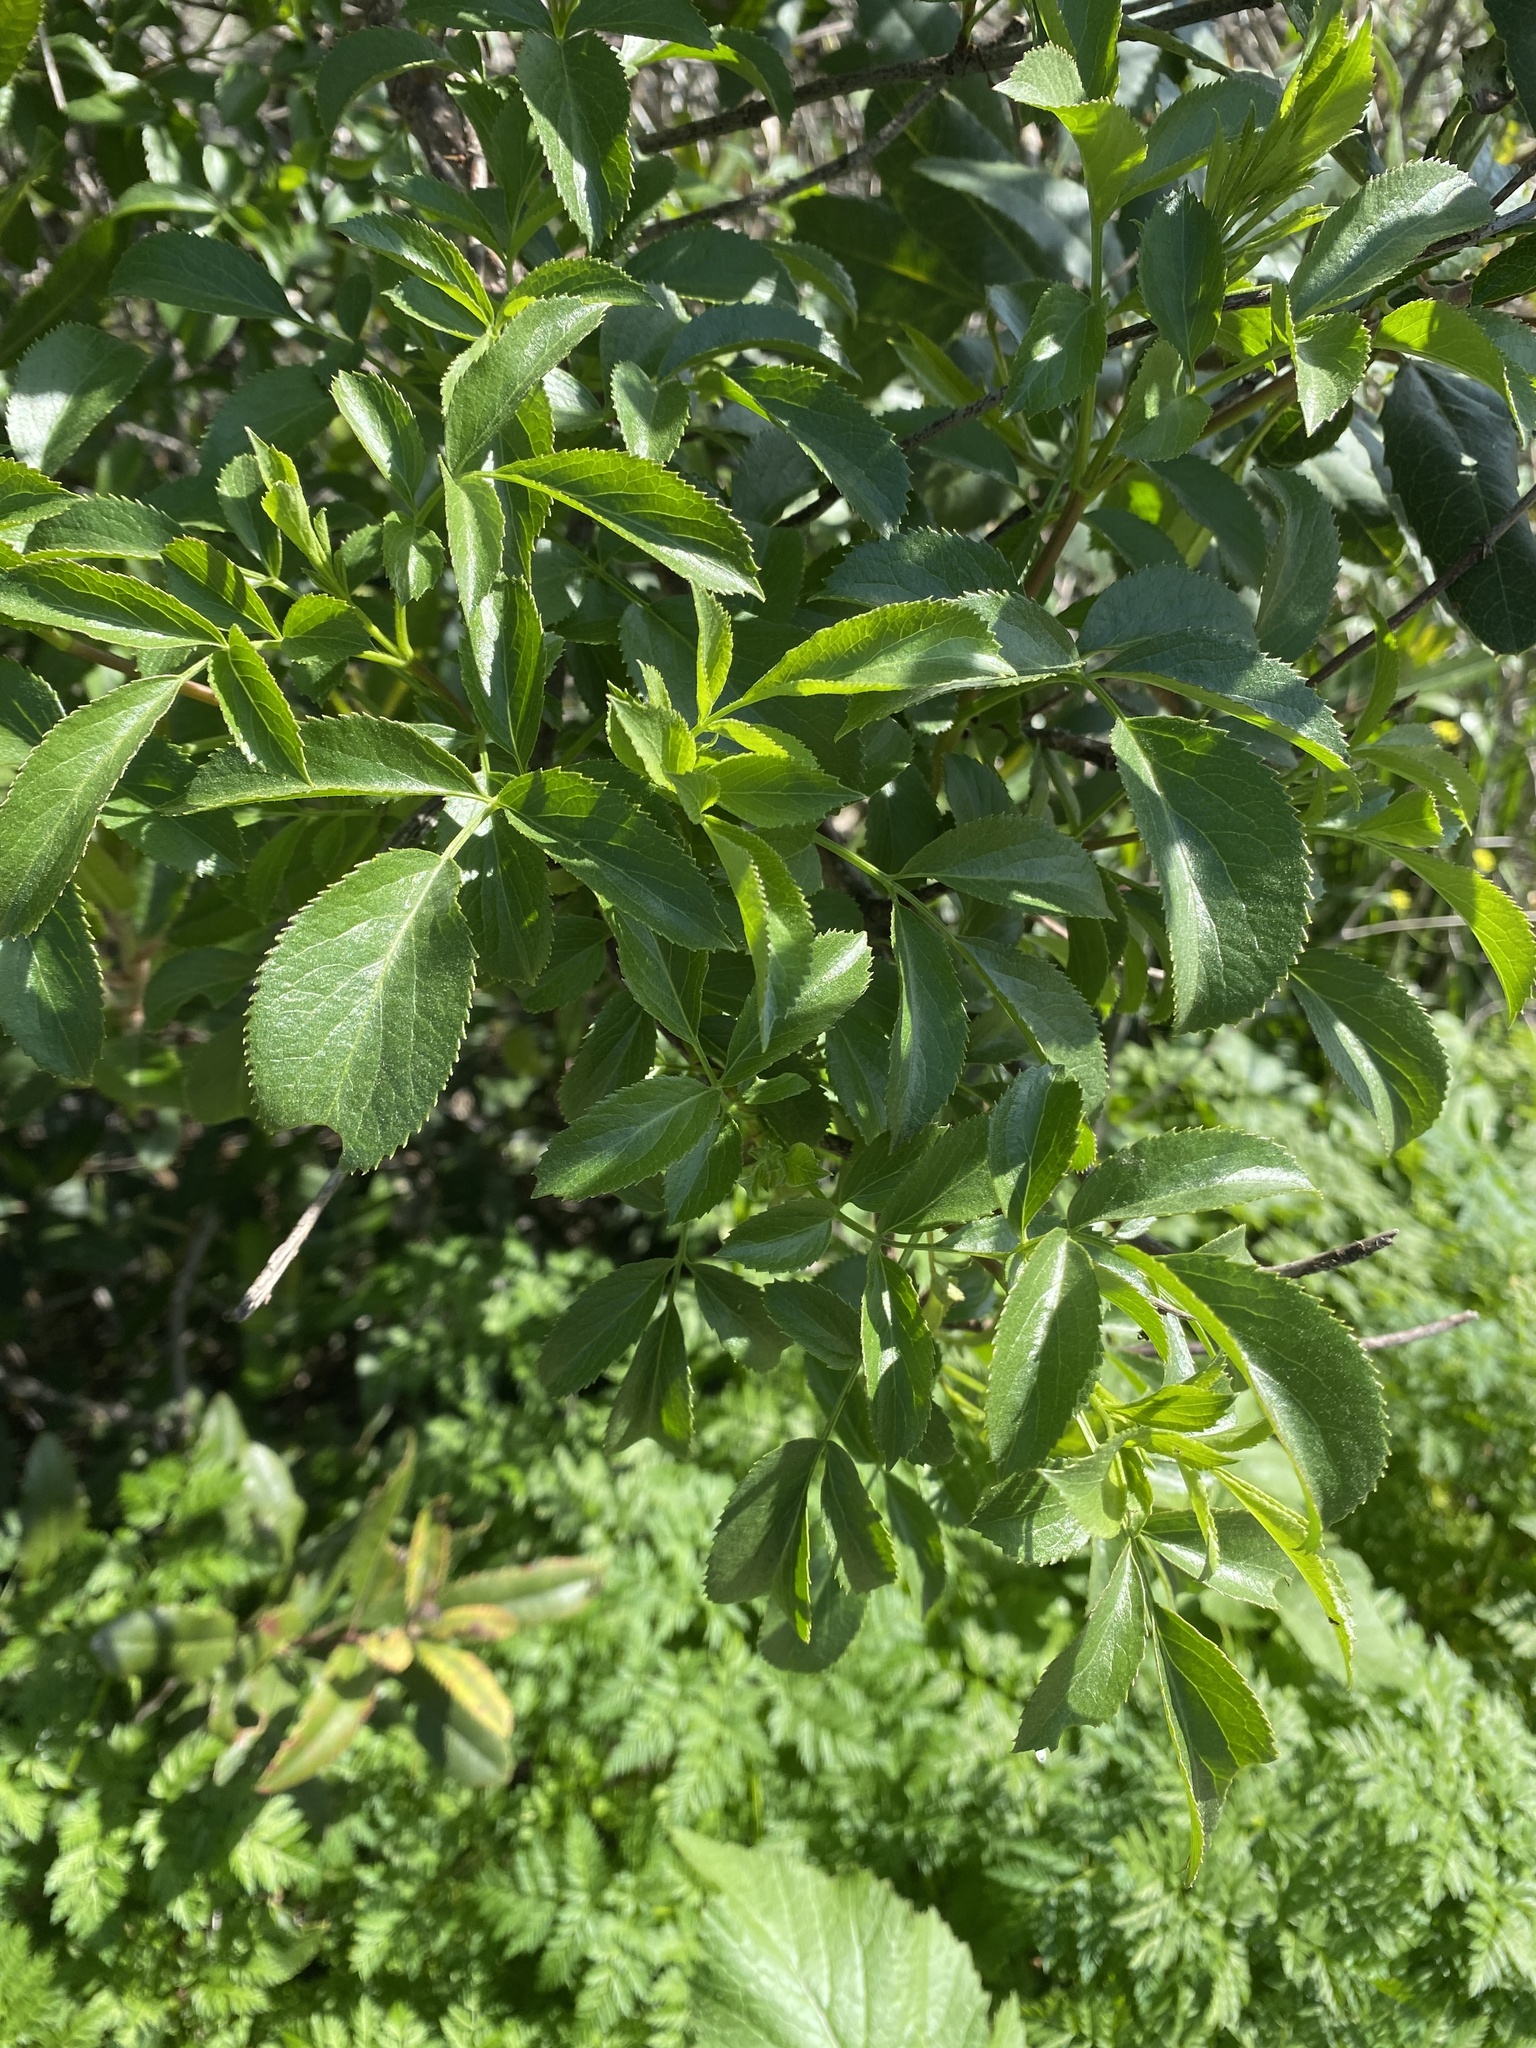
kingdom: Plantae
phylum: Tracheophyta
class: Magnoliopsida
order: Dipsacales
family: Viburnaceae
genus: Sambucus
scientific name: Sambucus cerulea
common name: Blue elder
